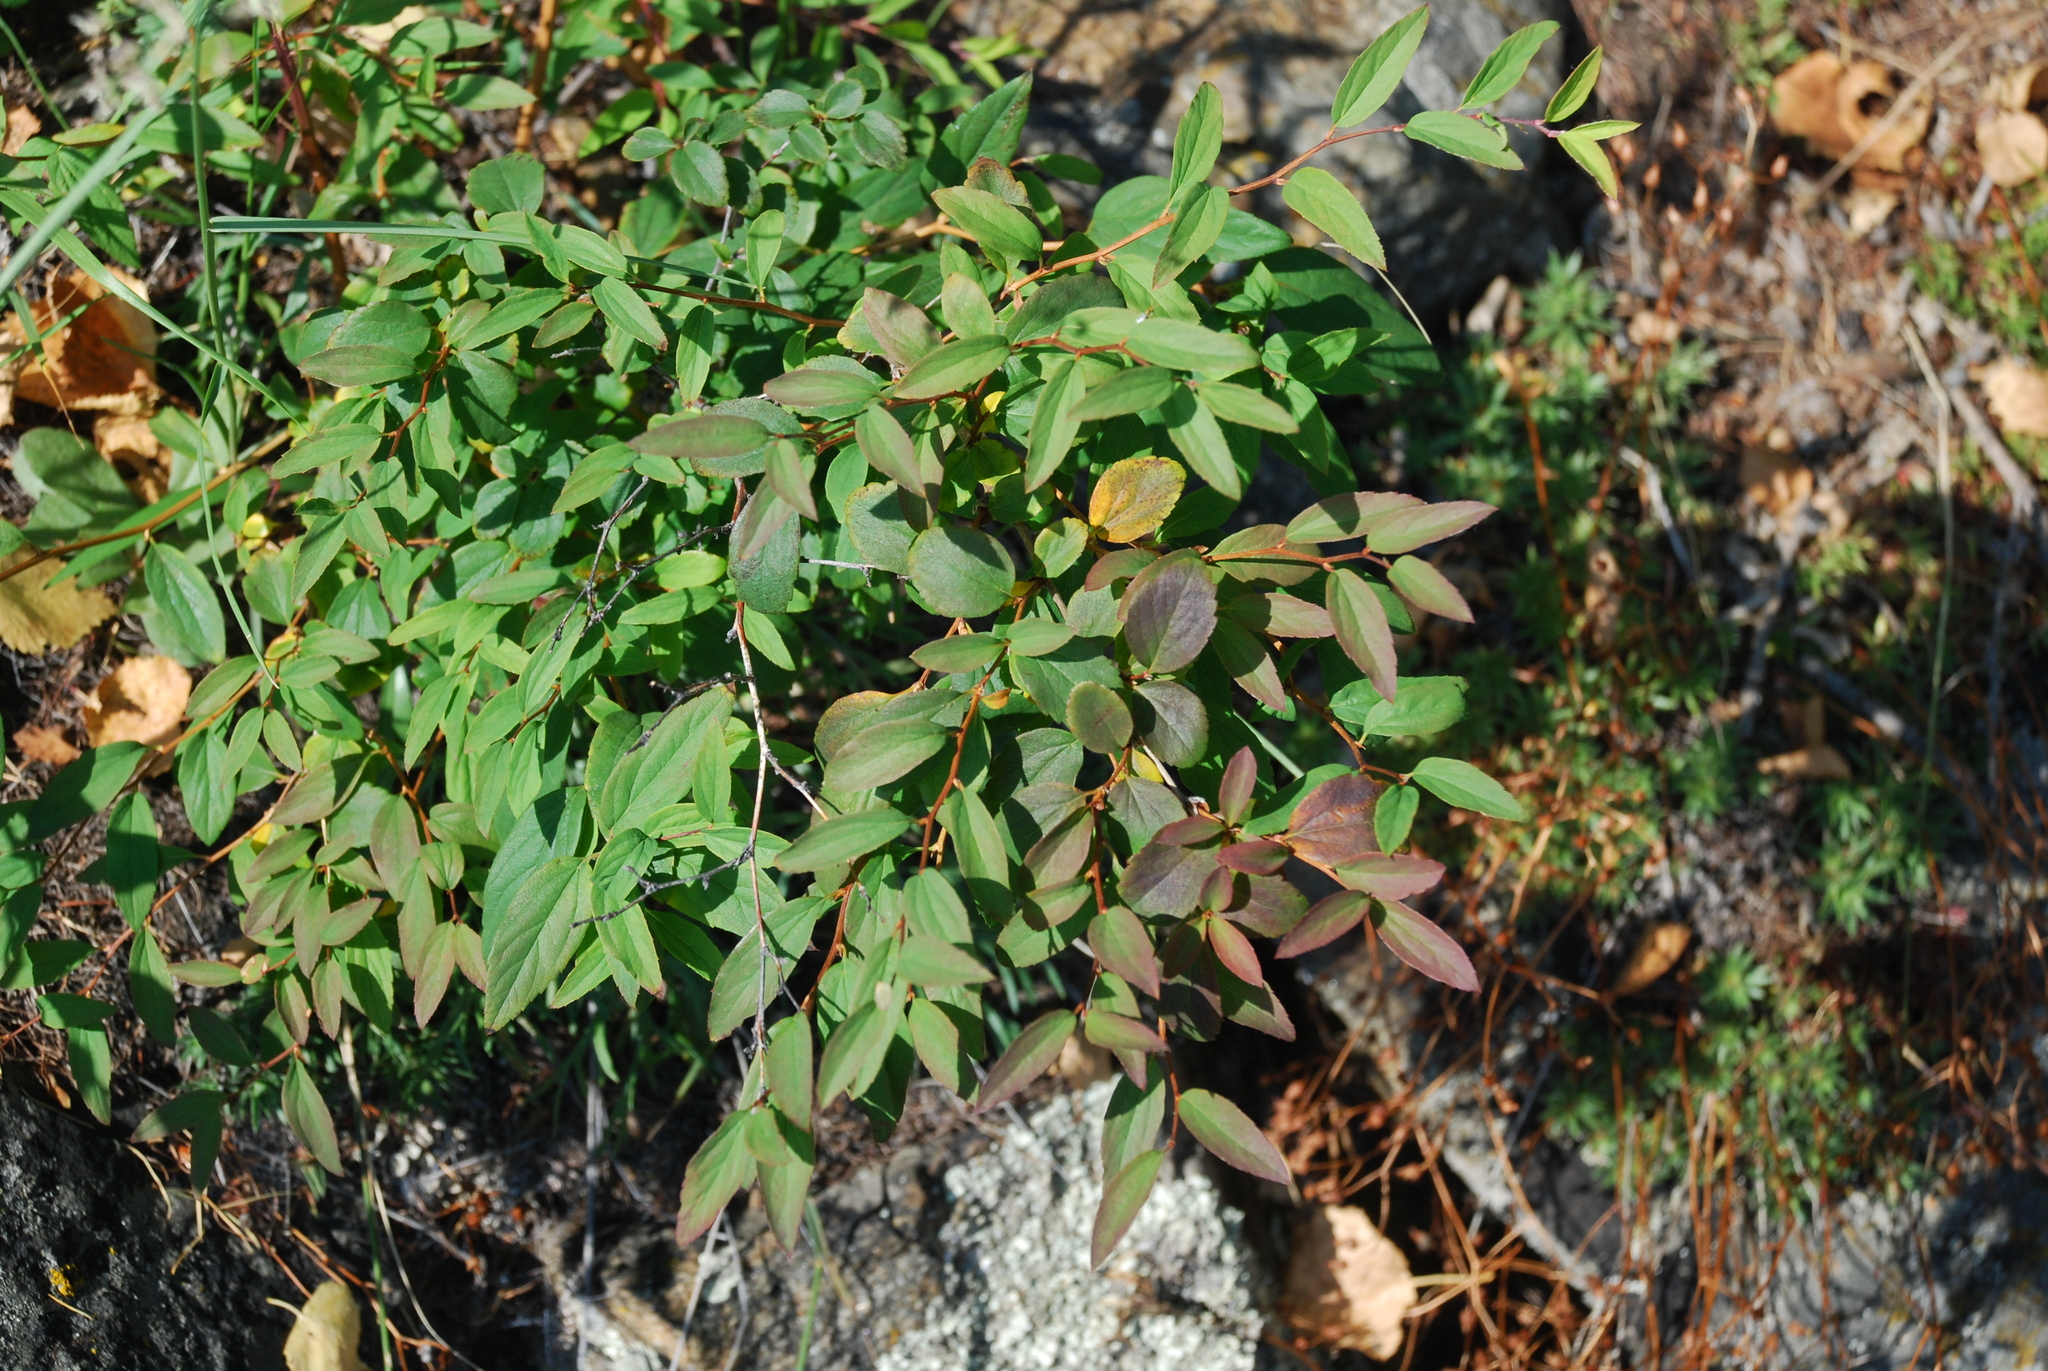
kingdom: Plantae
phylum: Tracheophyta
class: Magnoliopsida
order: Rosales
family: Rosaceae
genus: Spiraea
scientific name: Spiraea flexuosa
